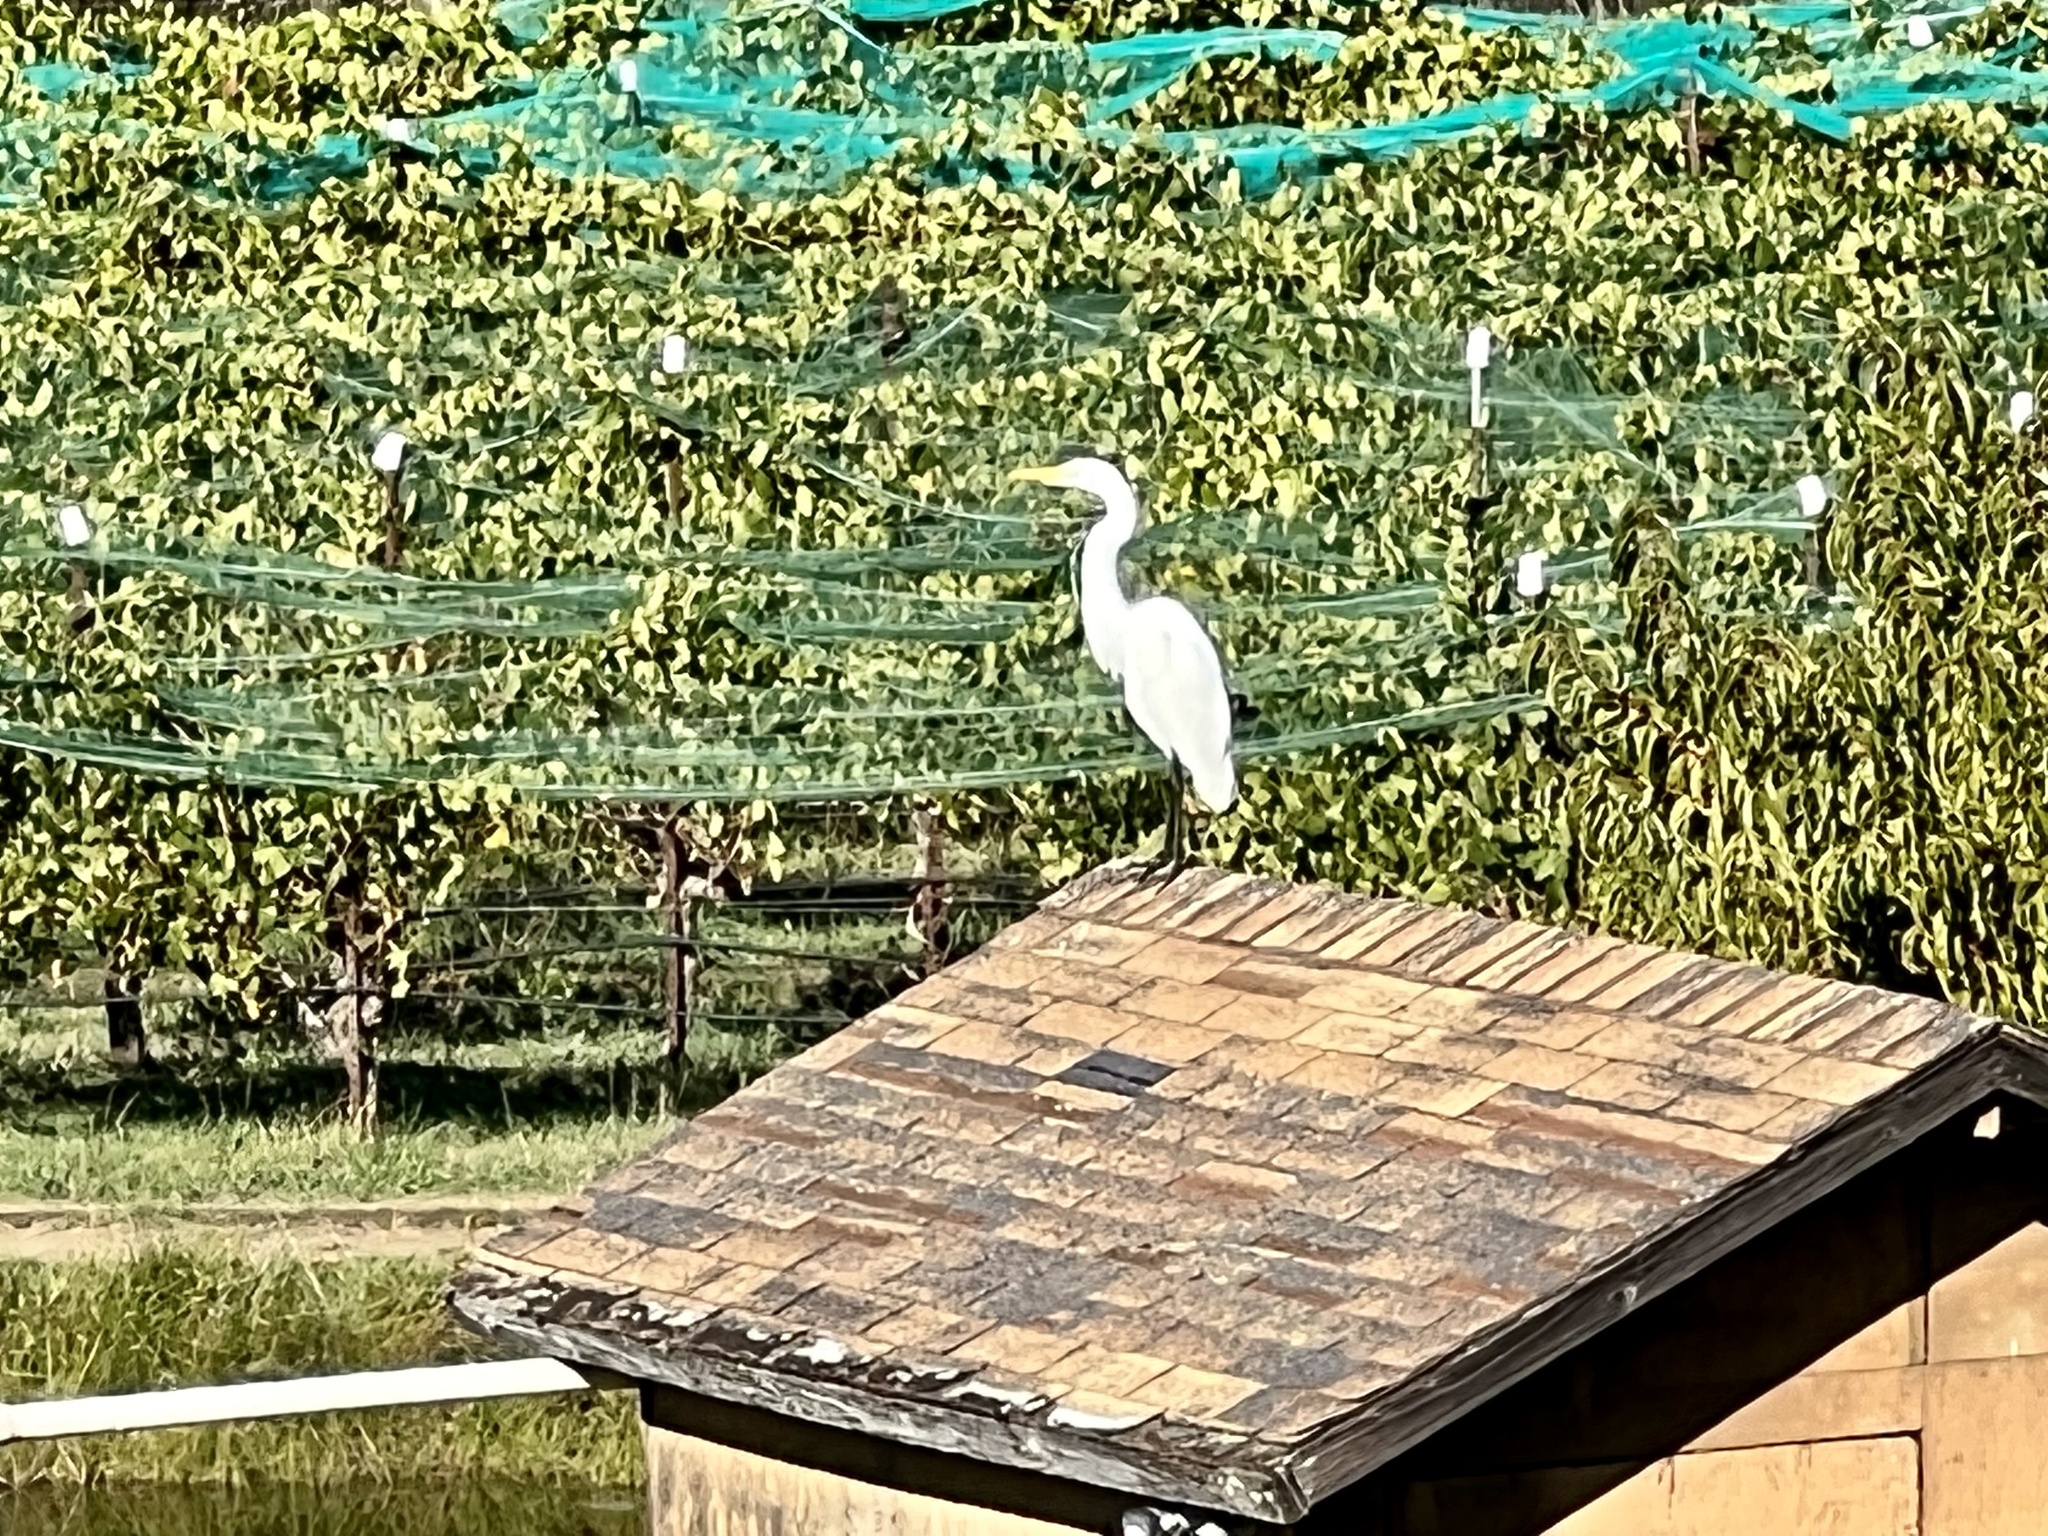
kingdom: Animalia
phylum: Chordata
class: Aves
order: Pelecaniformes
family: Ardeidae
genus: Ardea
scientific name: Ardea alba
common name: Great egret
